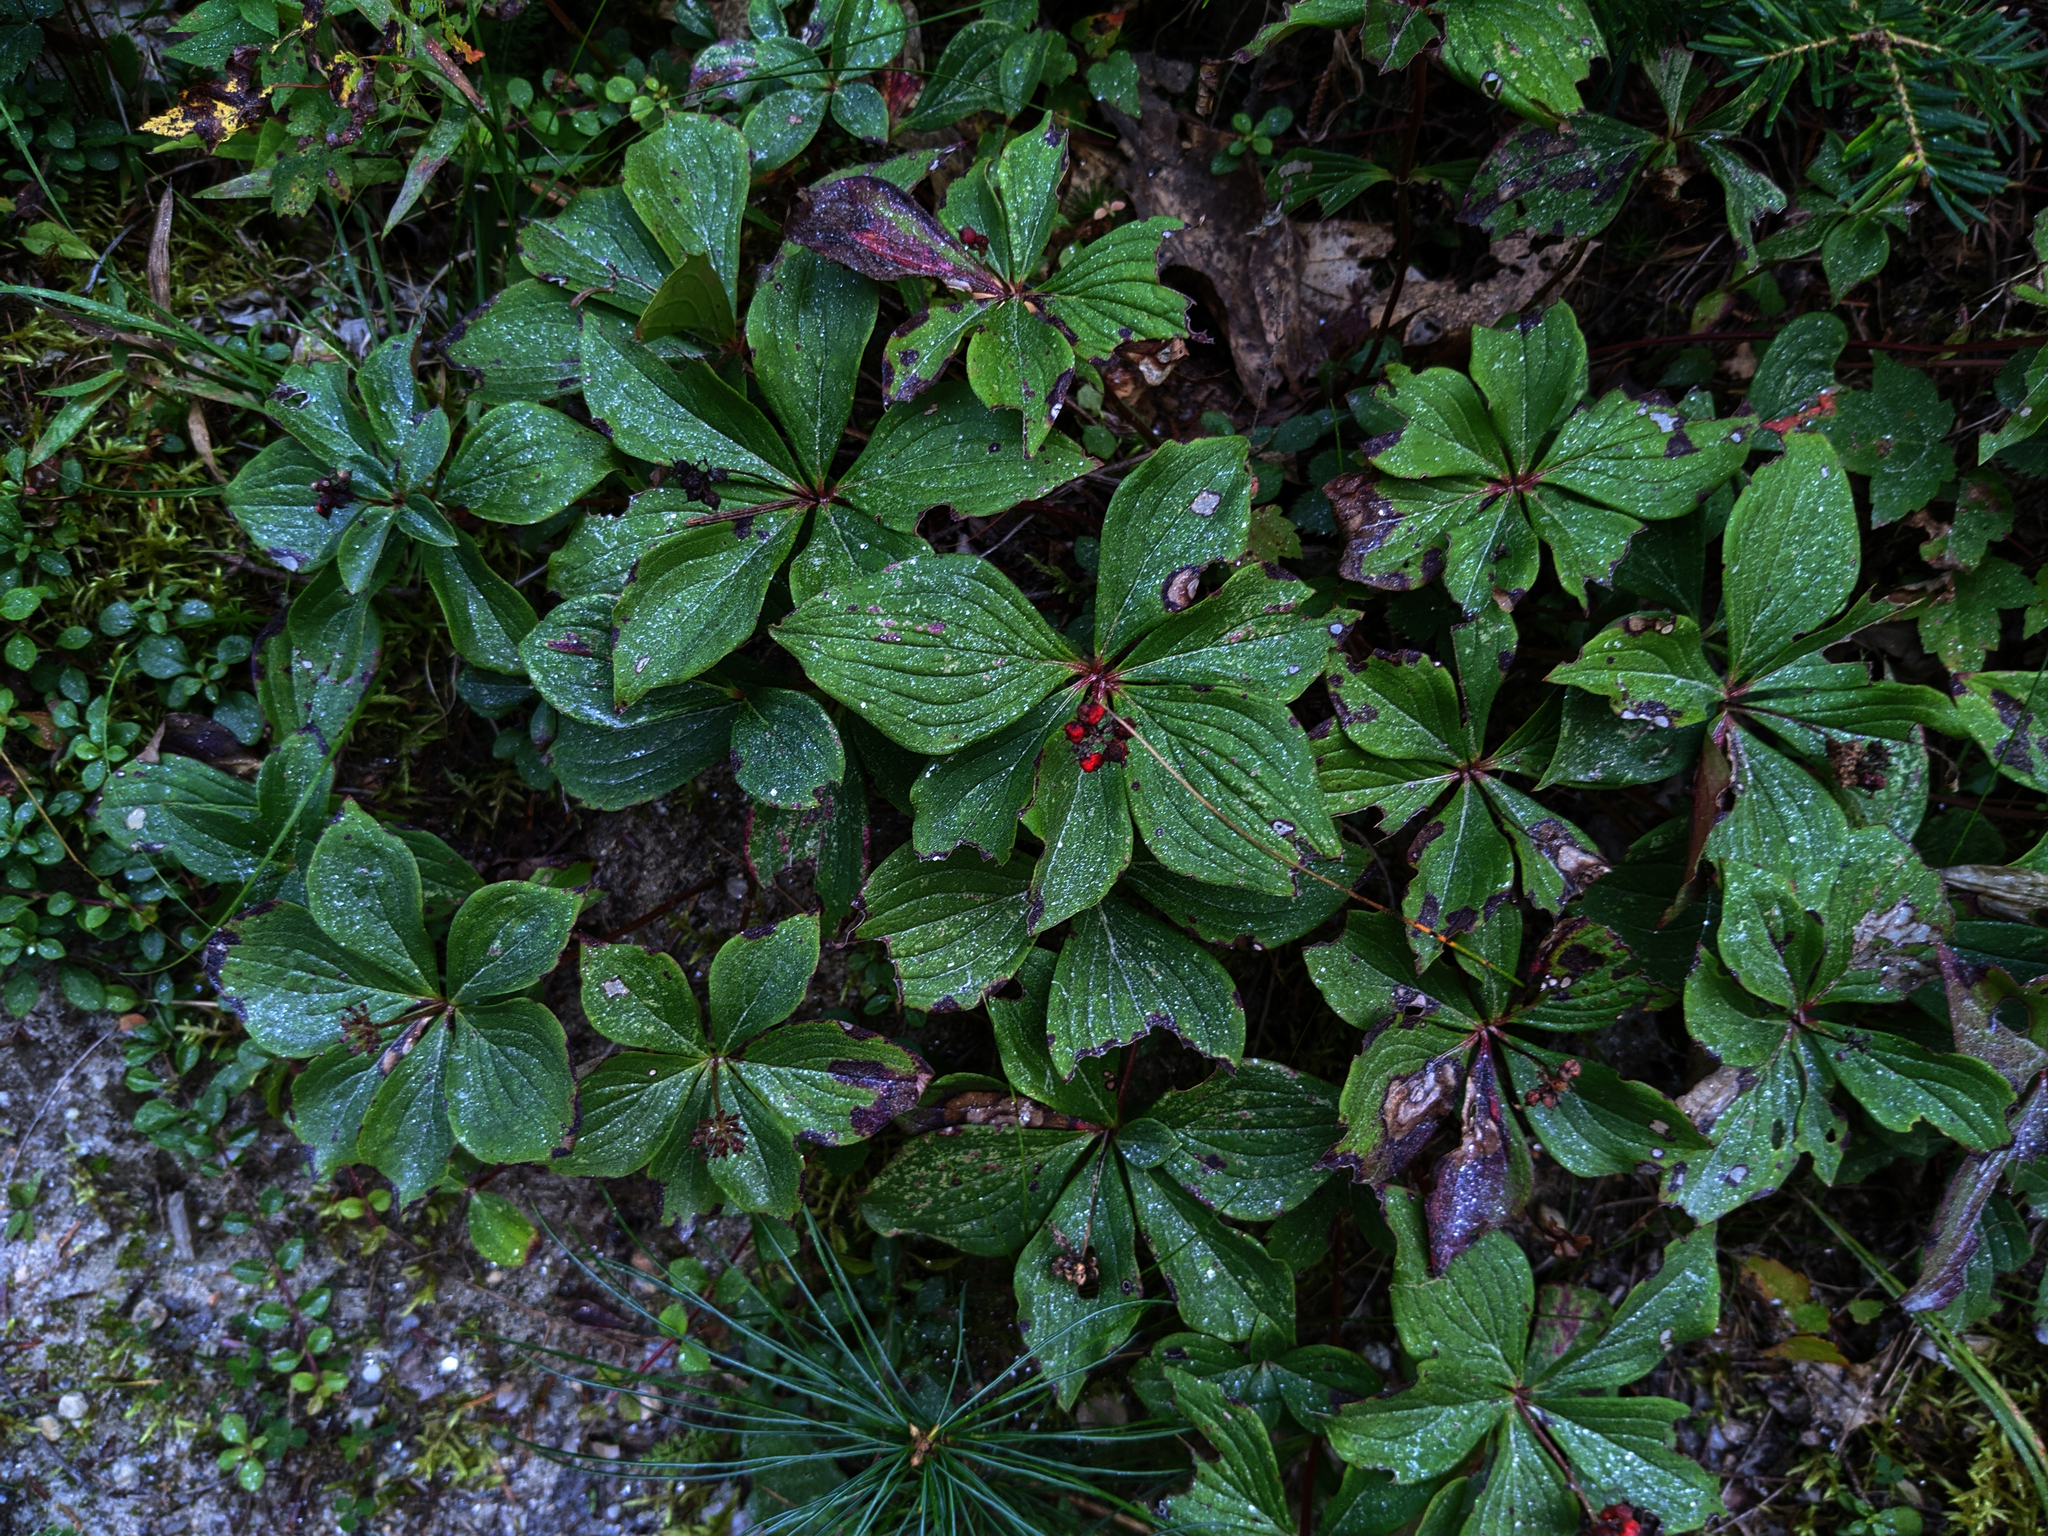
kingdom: Plantae
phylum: Tracheophyta
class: Magnoliopsida
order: Cornales
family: Cornaceae
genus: Cornus
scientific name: Cornus canadensis
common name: Creeping dogwood
